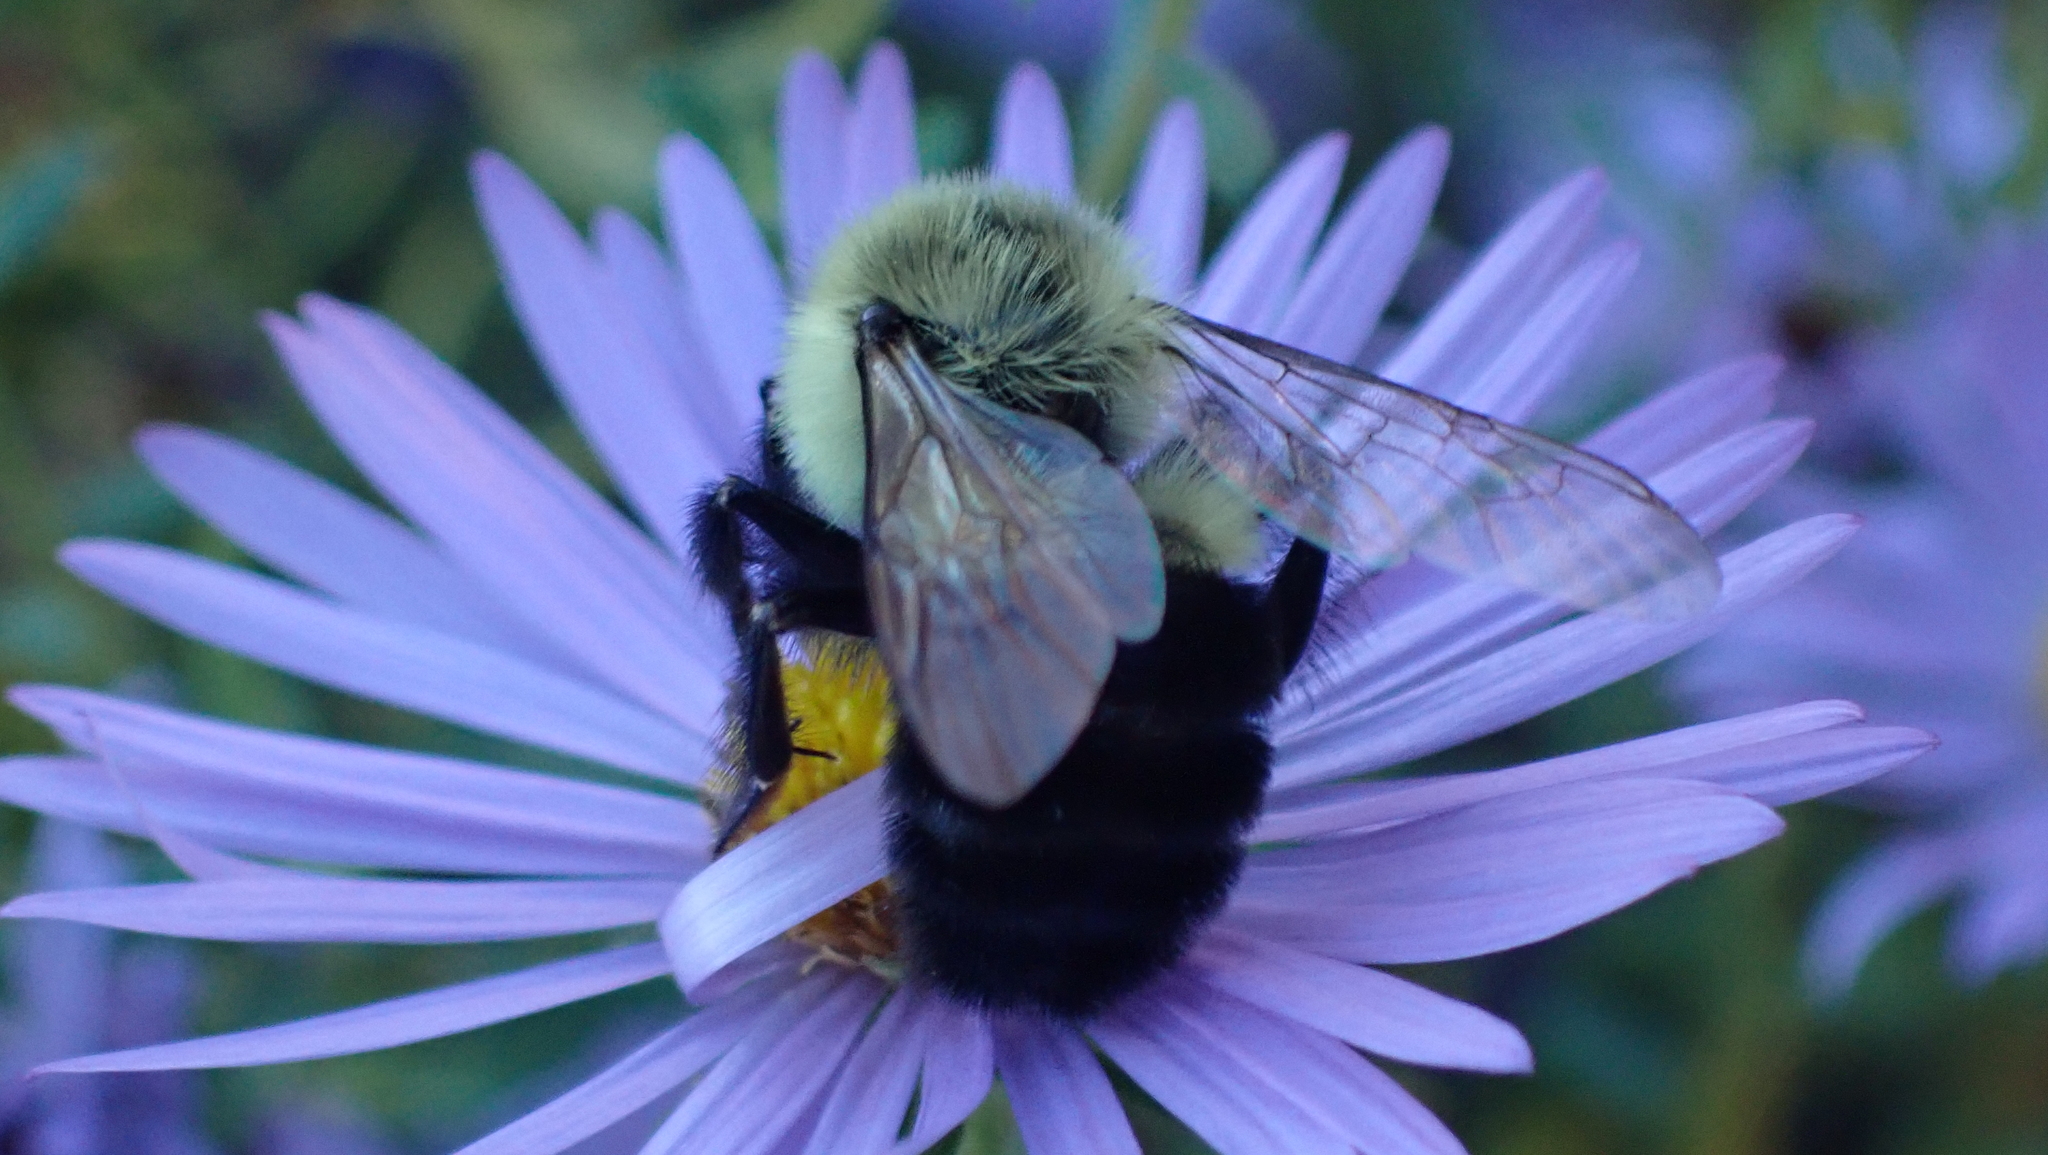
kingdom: Animalia
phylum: Arthropoda
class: Insecta
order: Hymenoptera
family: Apidae
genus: Bombus
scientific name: Bombus impatiens
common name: Common eastern bumble bee
